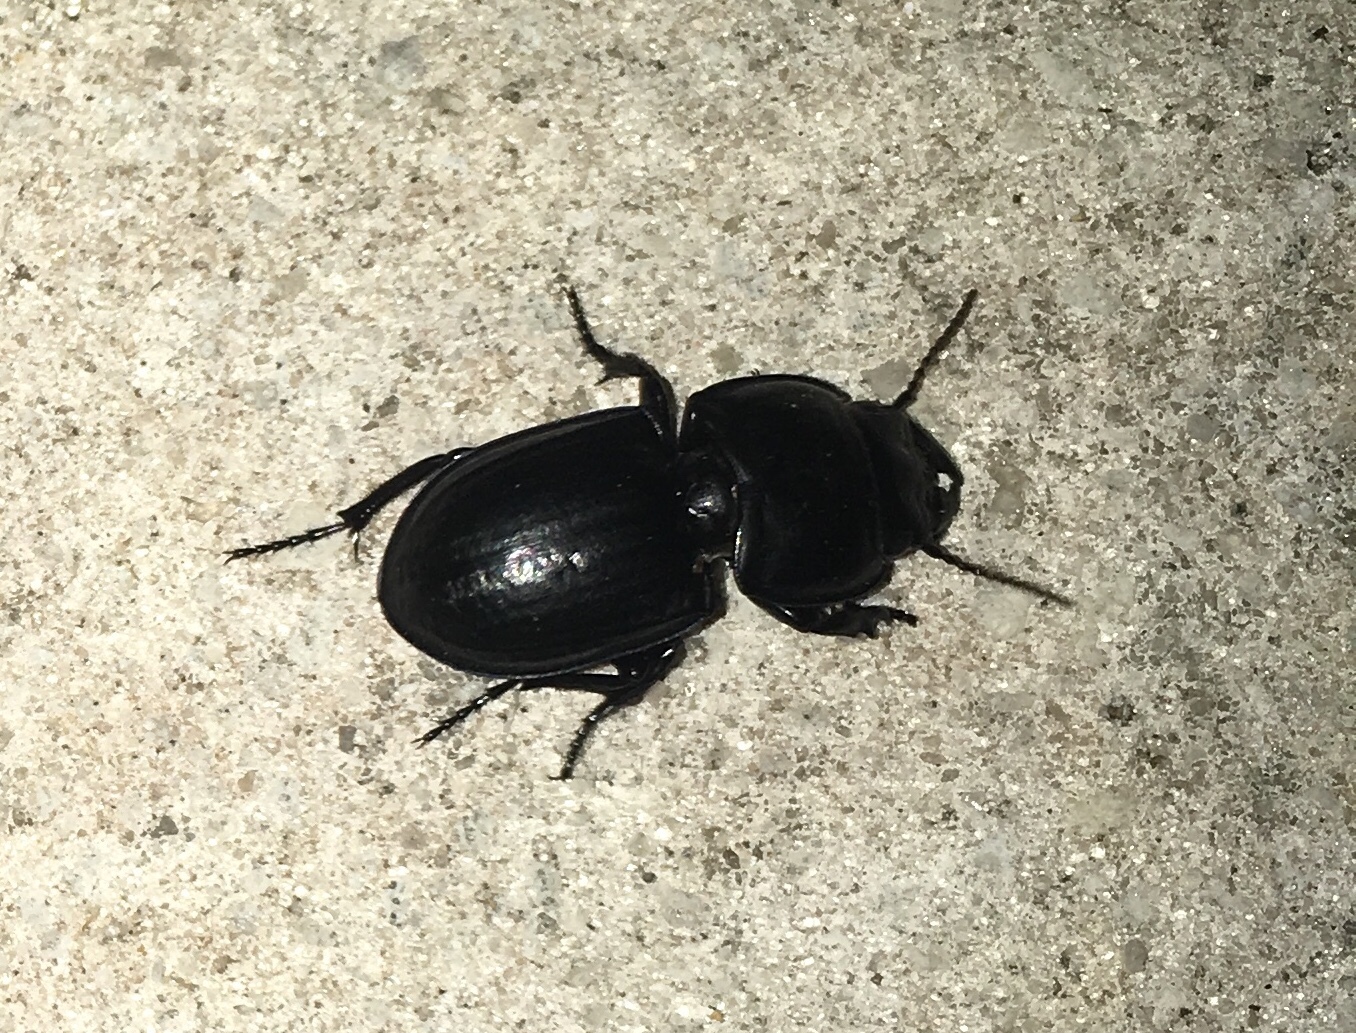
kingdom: Animalia
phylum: Arthropoda
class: Insecta
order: Coleoptera
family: Carabidae
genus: Pasimachus
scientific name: Pasimachus sublaevis
